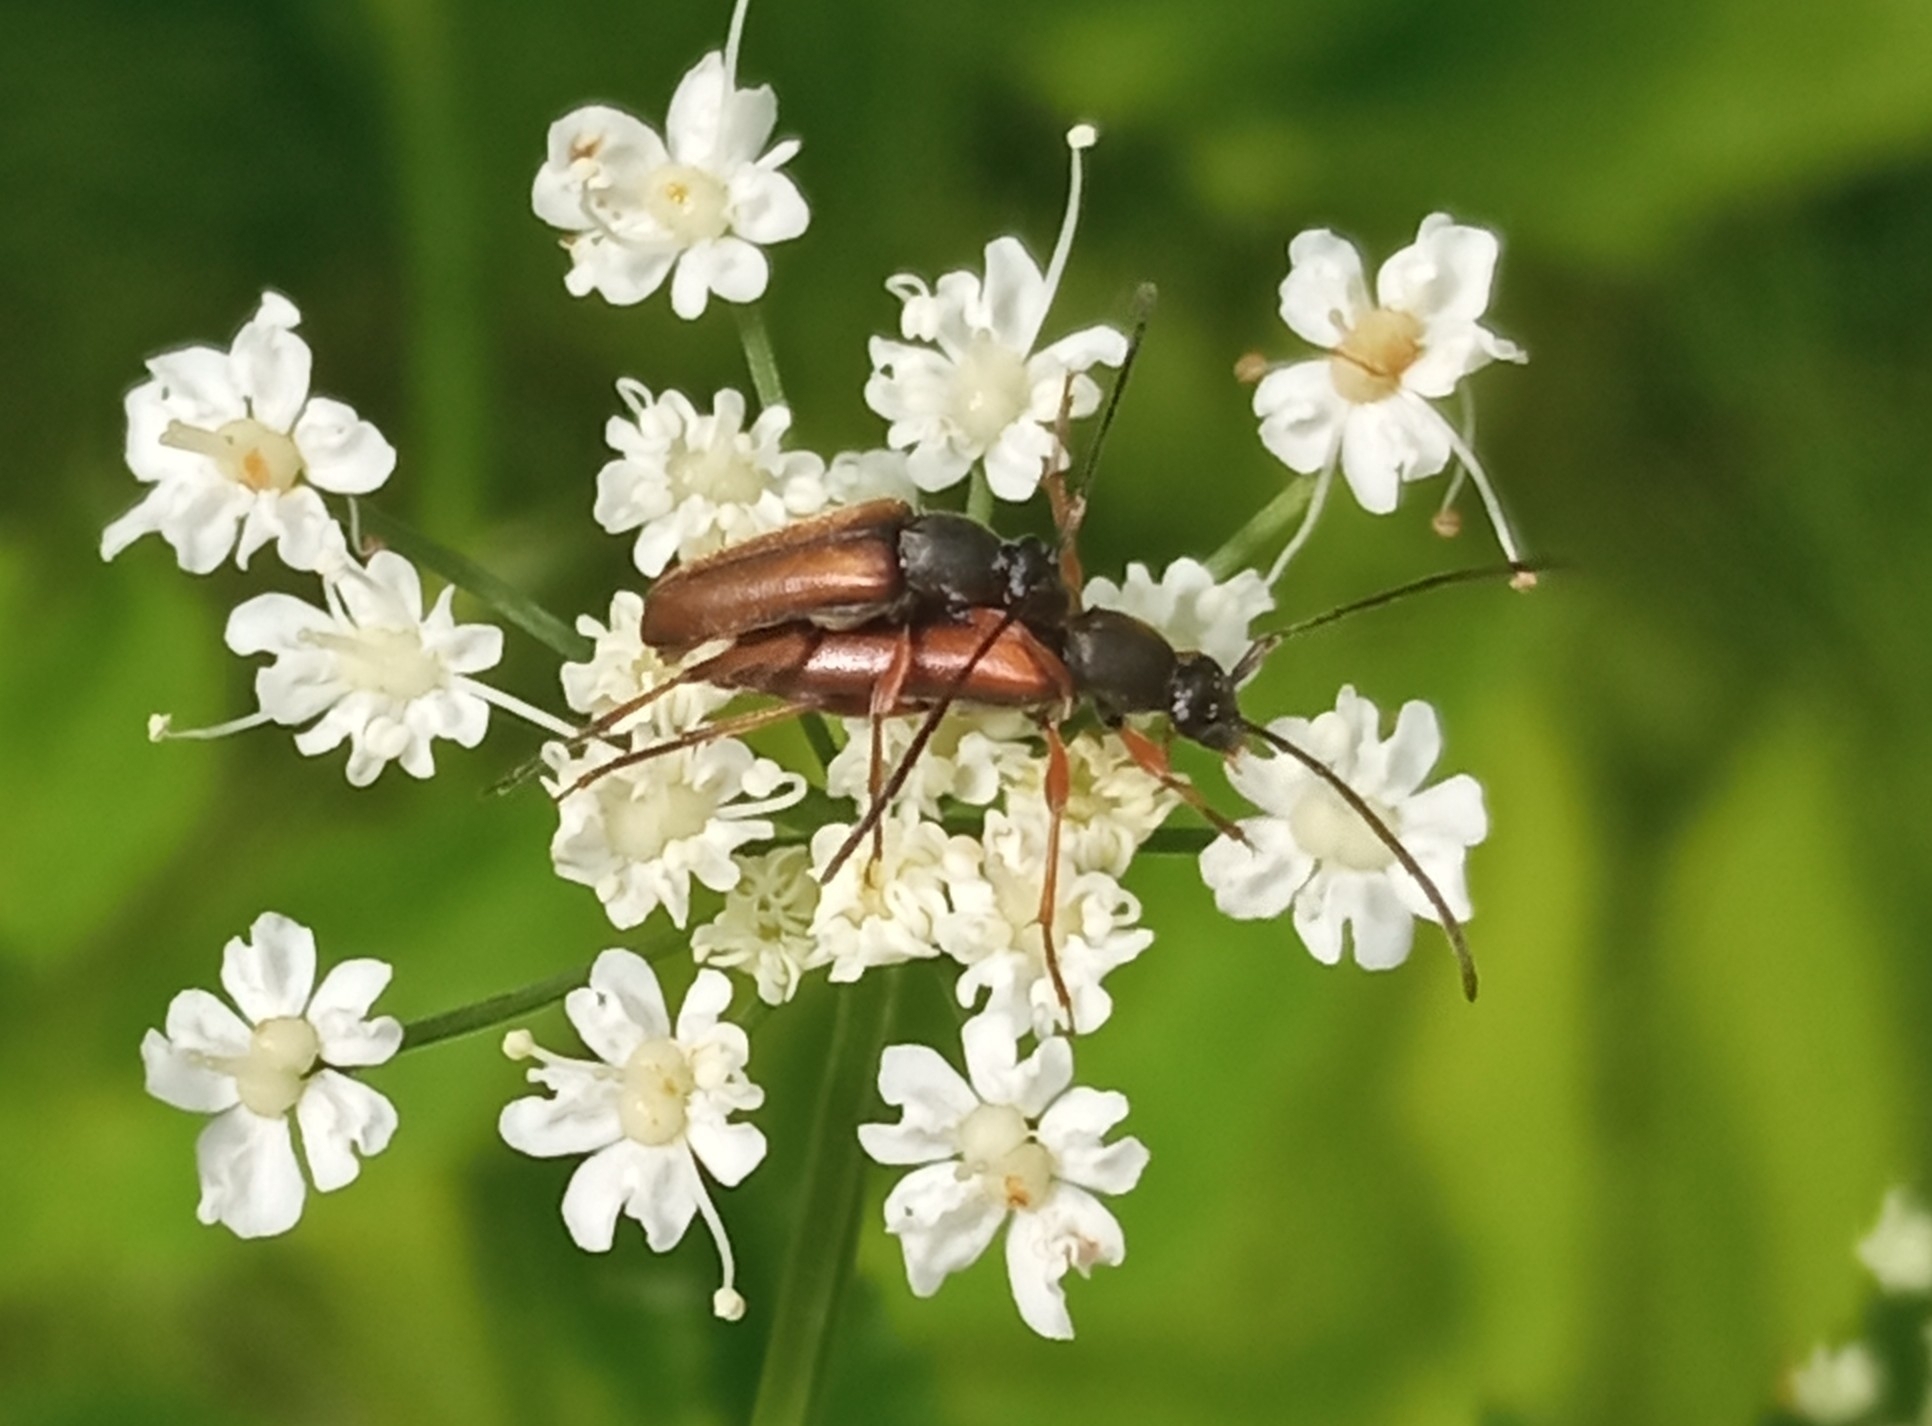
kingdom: Animalia
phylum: Arthropoda
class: Insecta
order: Coleoptera
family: Cerambycidae
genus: Alosterna
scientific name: Alosterna tabacicolor
